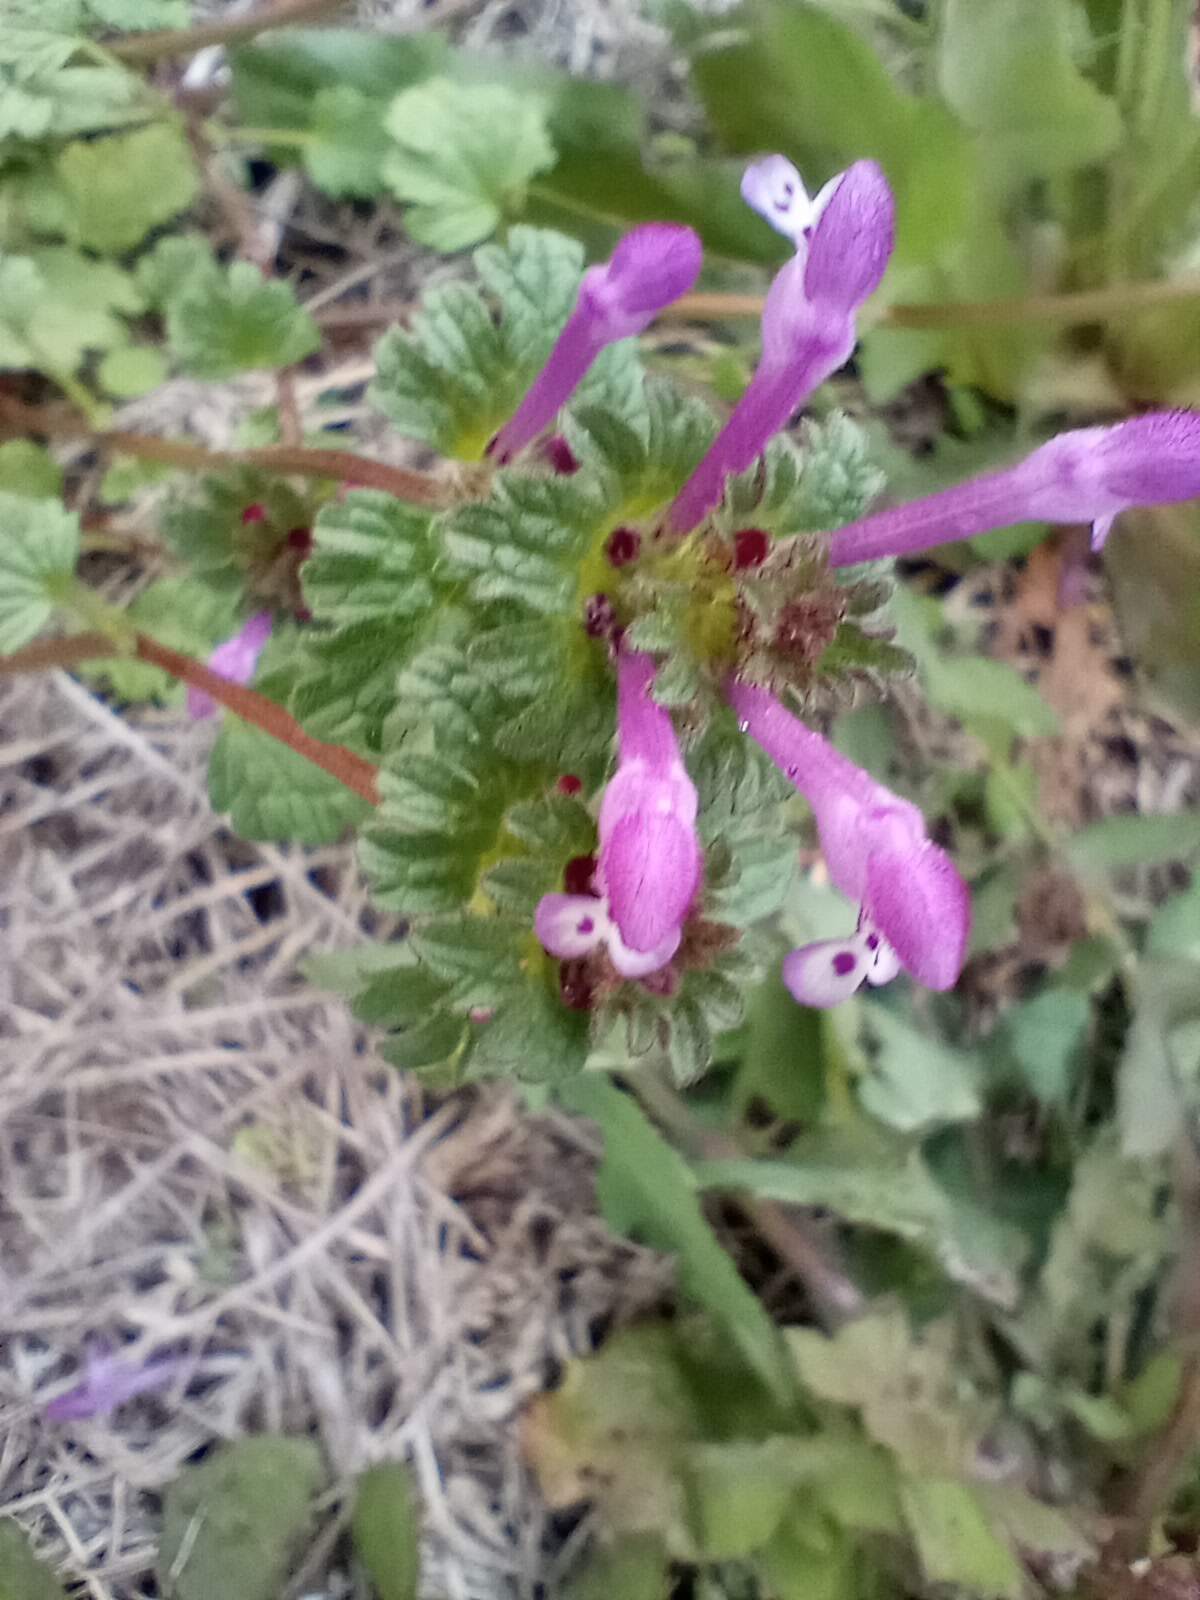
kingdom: Plantae
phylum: Tracheophyta
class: Magnoliopsida
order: Lamiales
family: Lamiaceae
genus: Lamium
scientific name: Lamium amplexicaule
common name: Henbit dead-nettle
